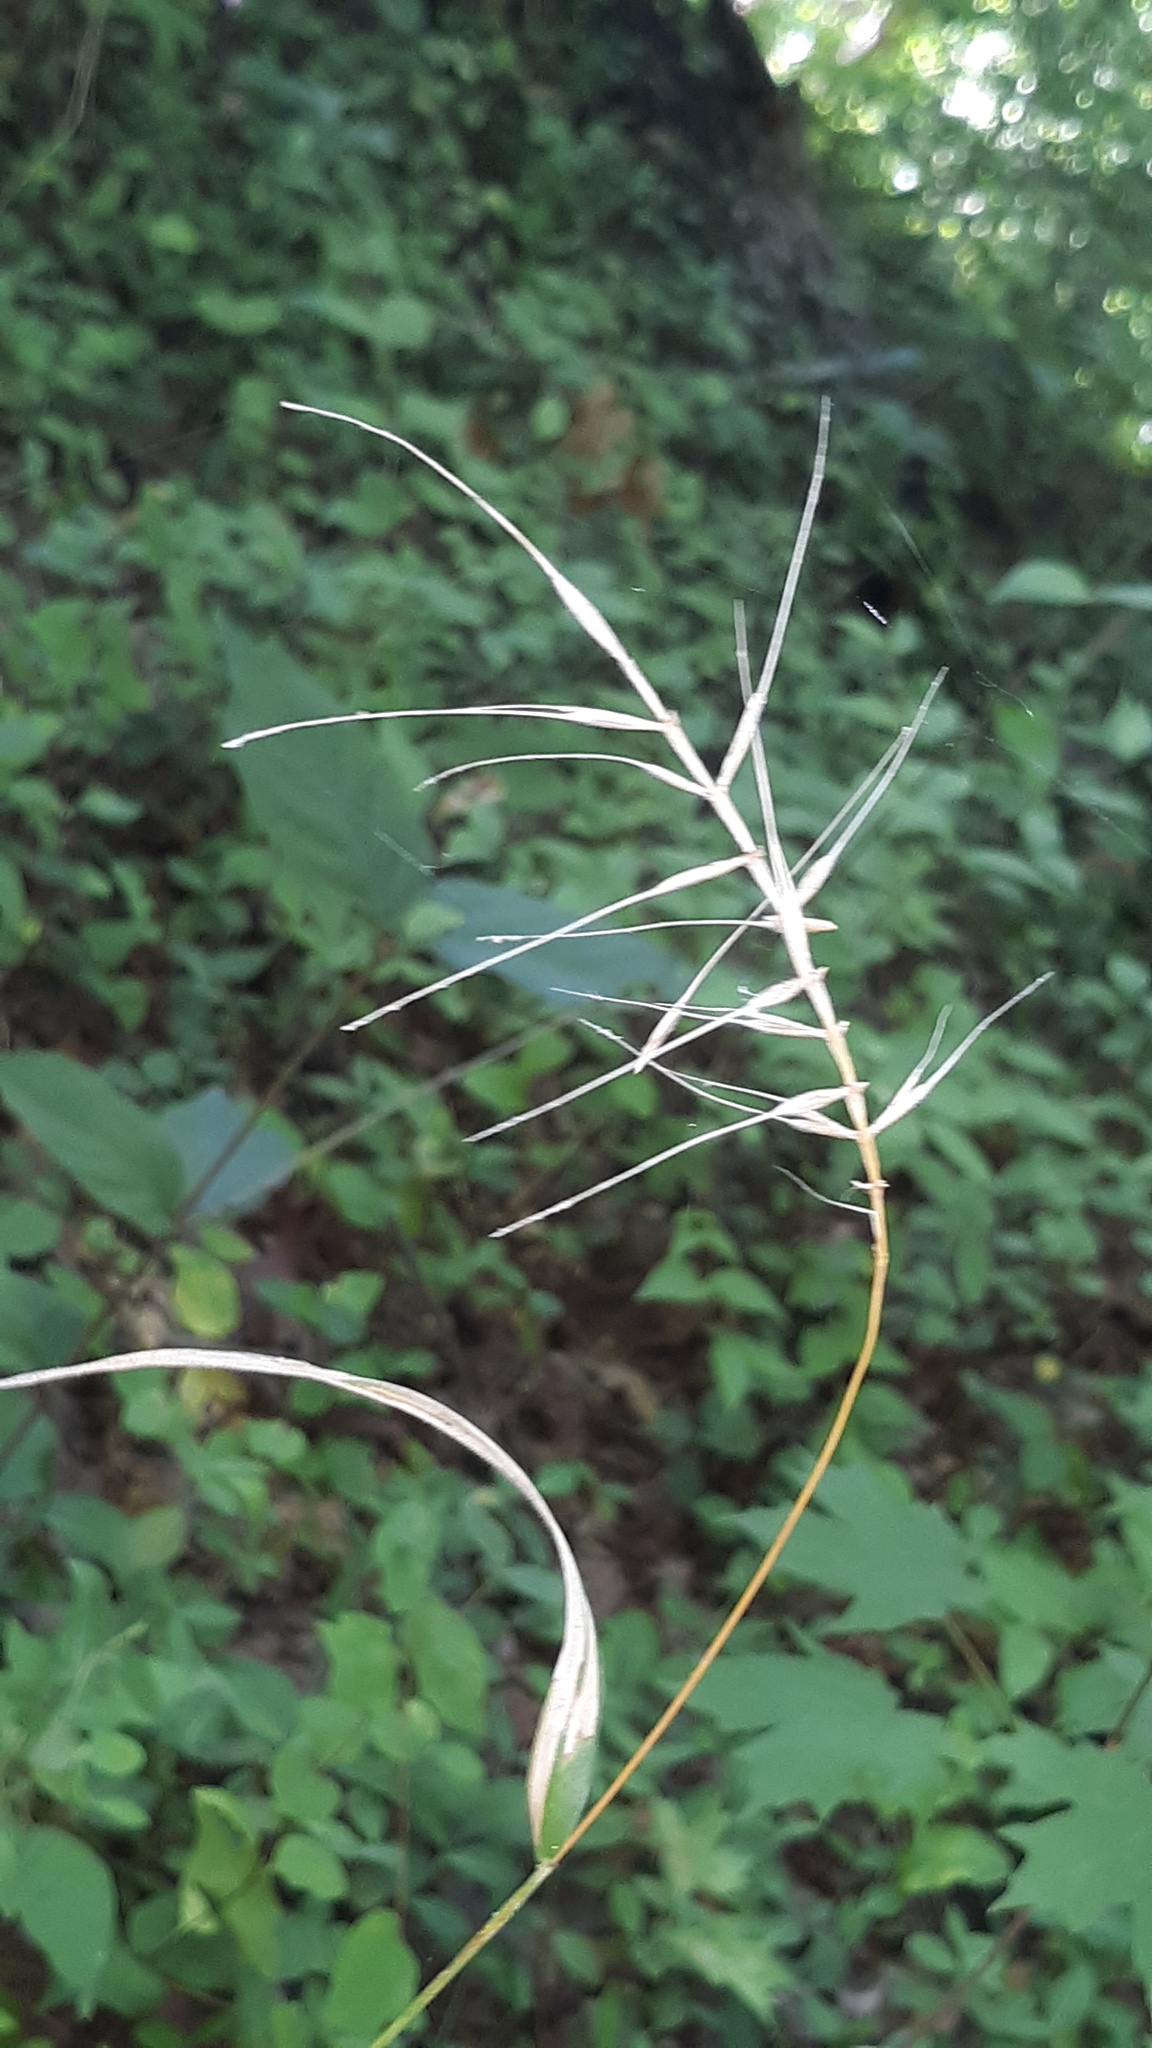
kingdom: Plantae
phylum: Tracheophyta
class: Liliopsida
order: Poales
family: Poaceae
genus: Elymus
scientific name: Elymus hystrix
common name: Bottlebrush grass
